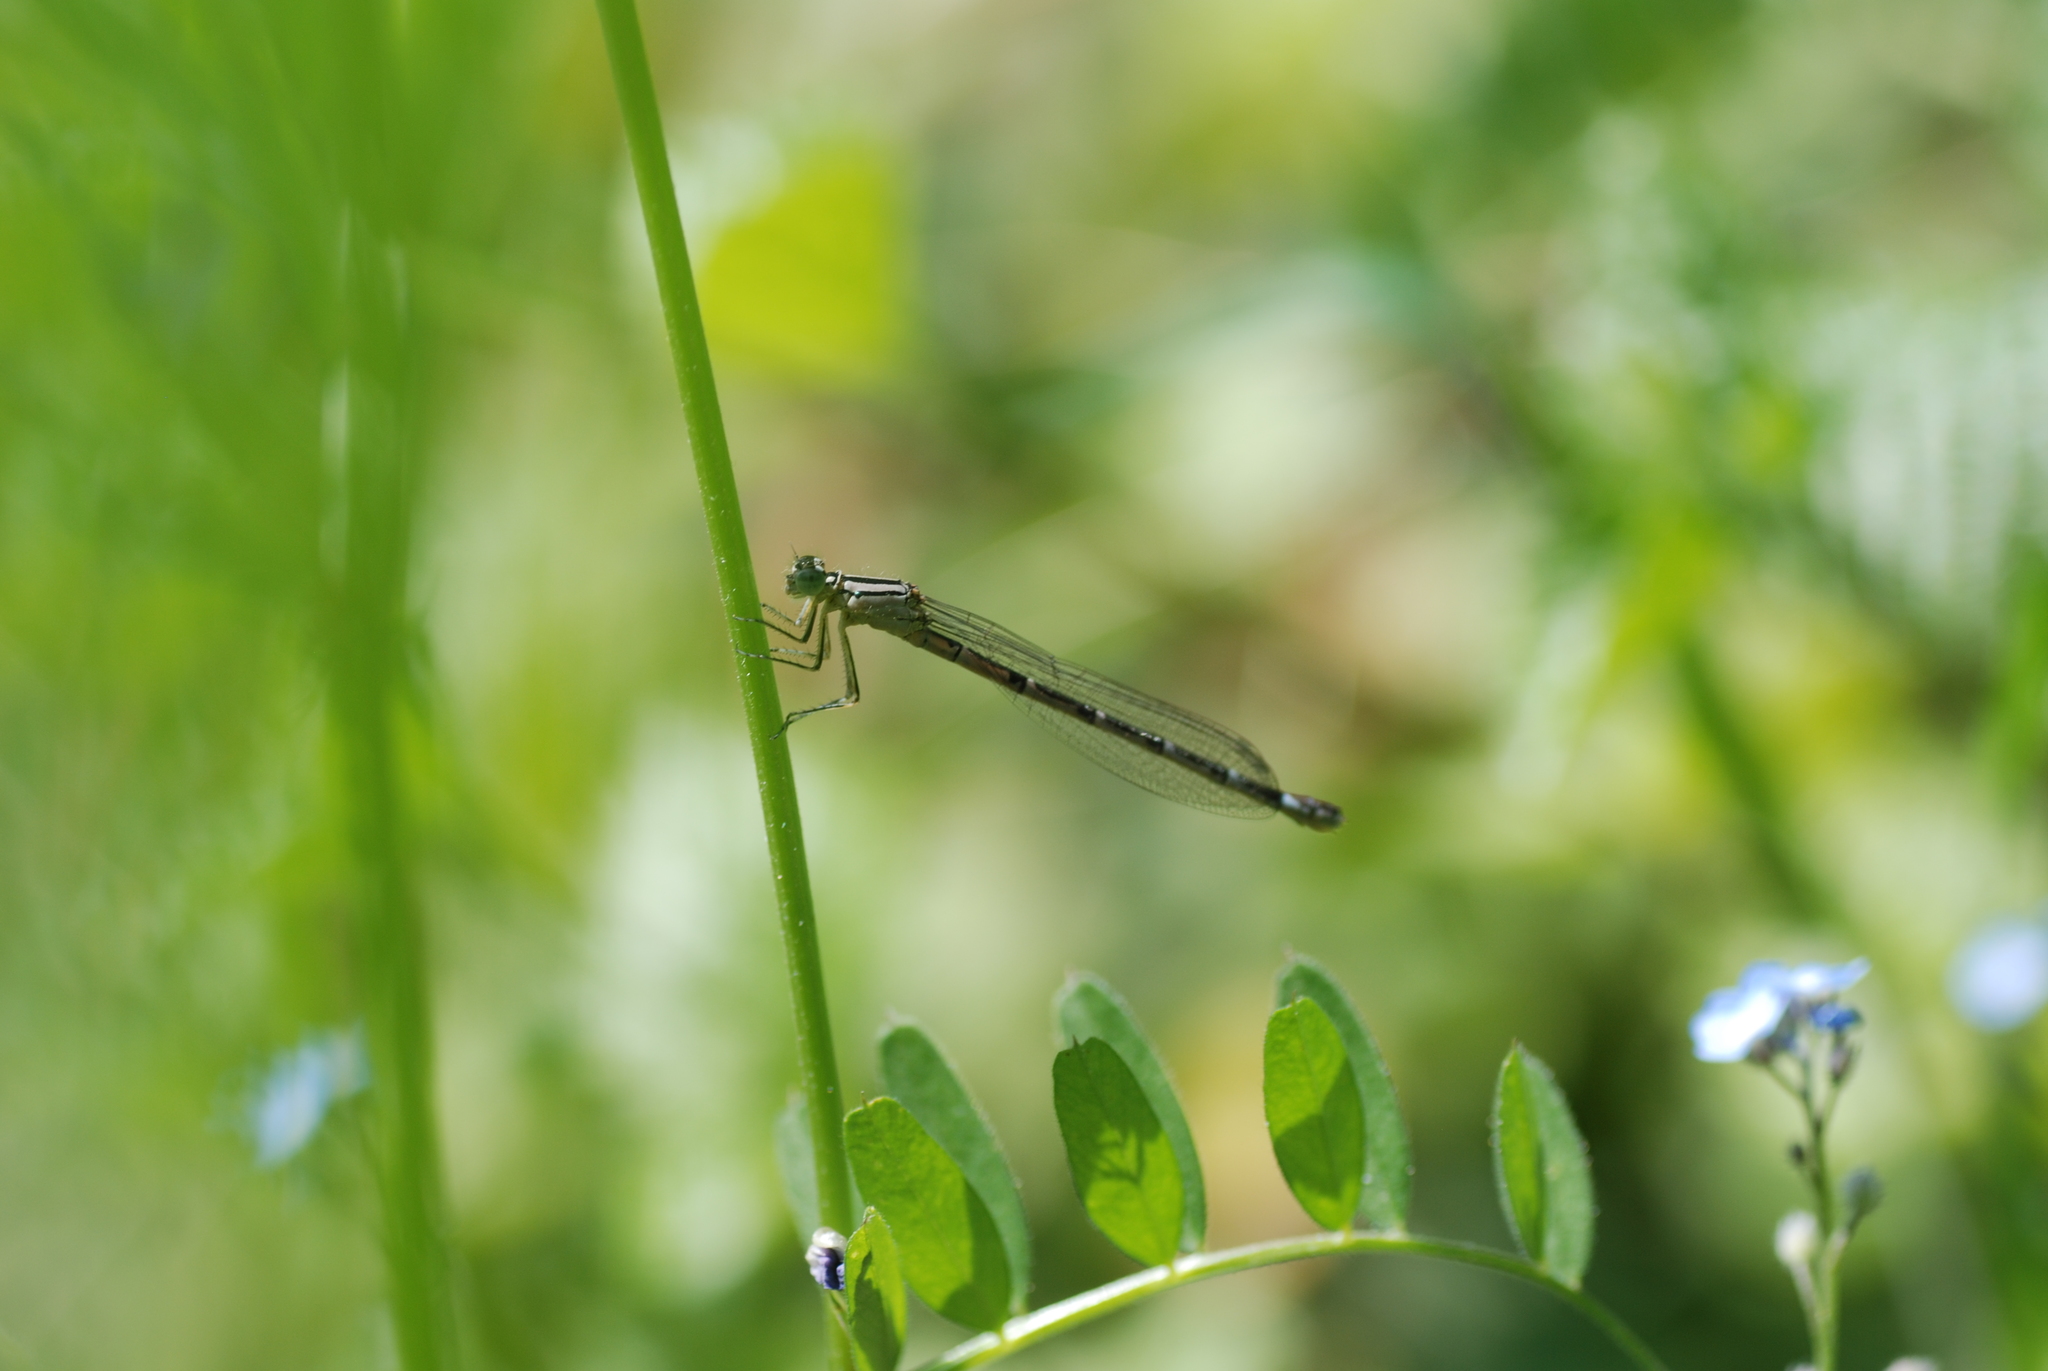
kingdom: Animalia
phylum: Arthropoda
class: Insecta
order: Odonata
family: Coenagrionidae
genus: Enallagma
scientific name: Enallagma cyathigerum
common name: Common blue damselfly
